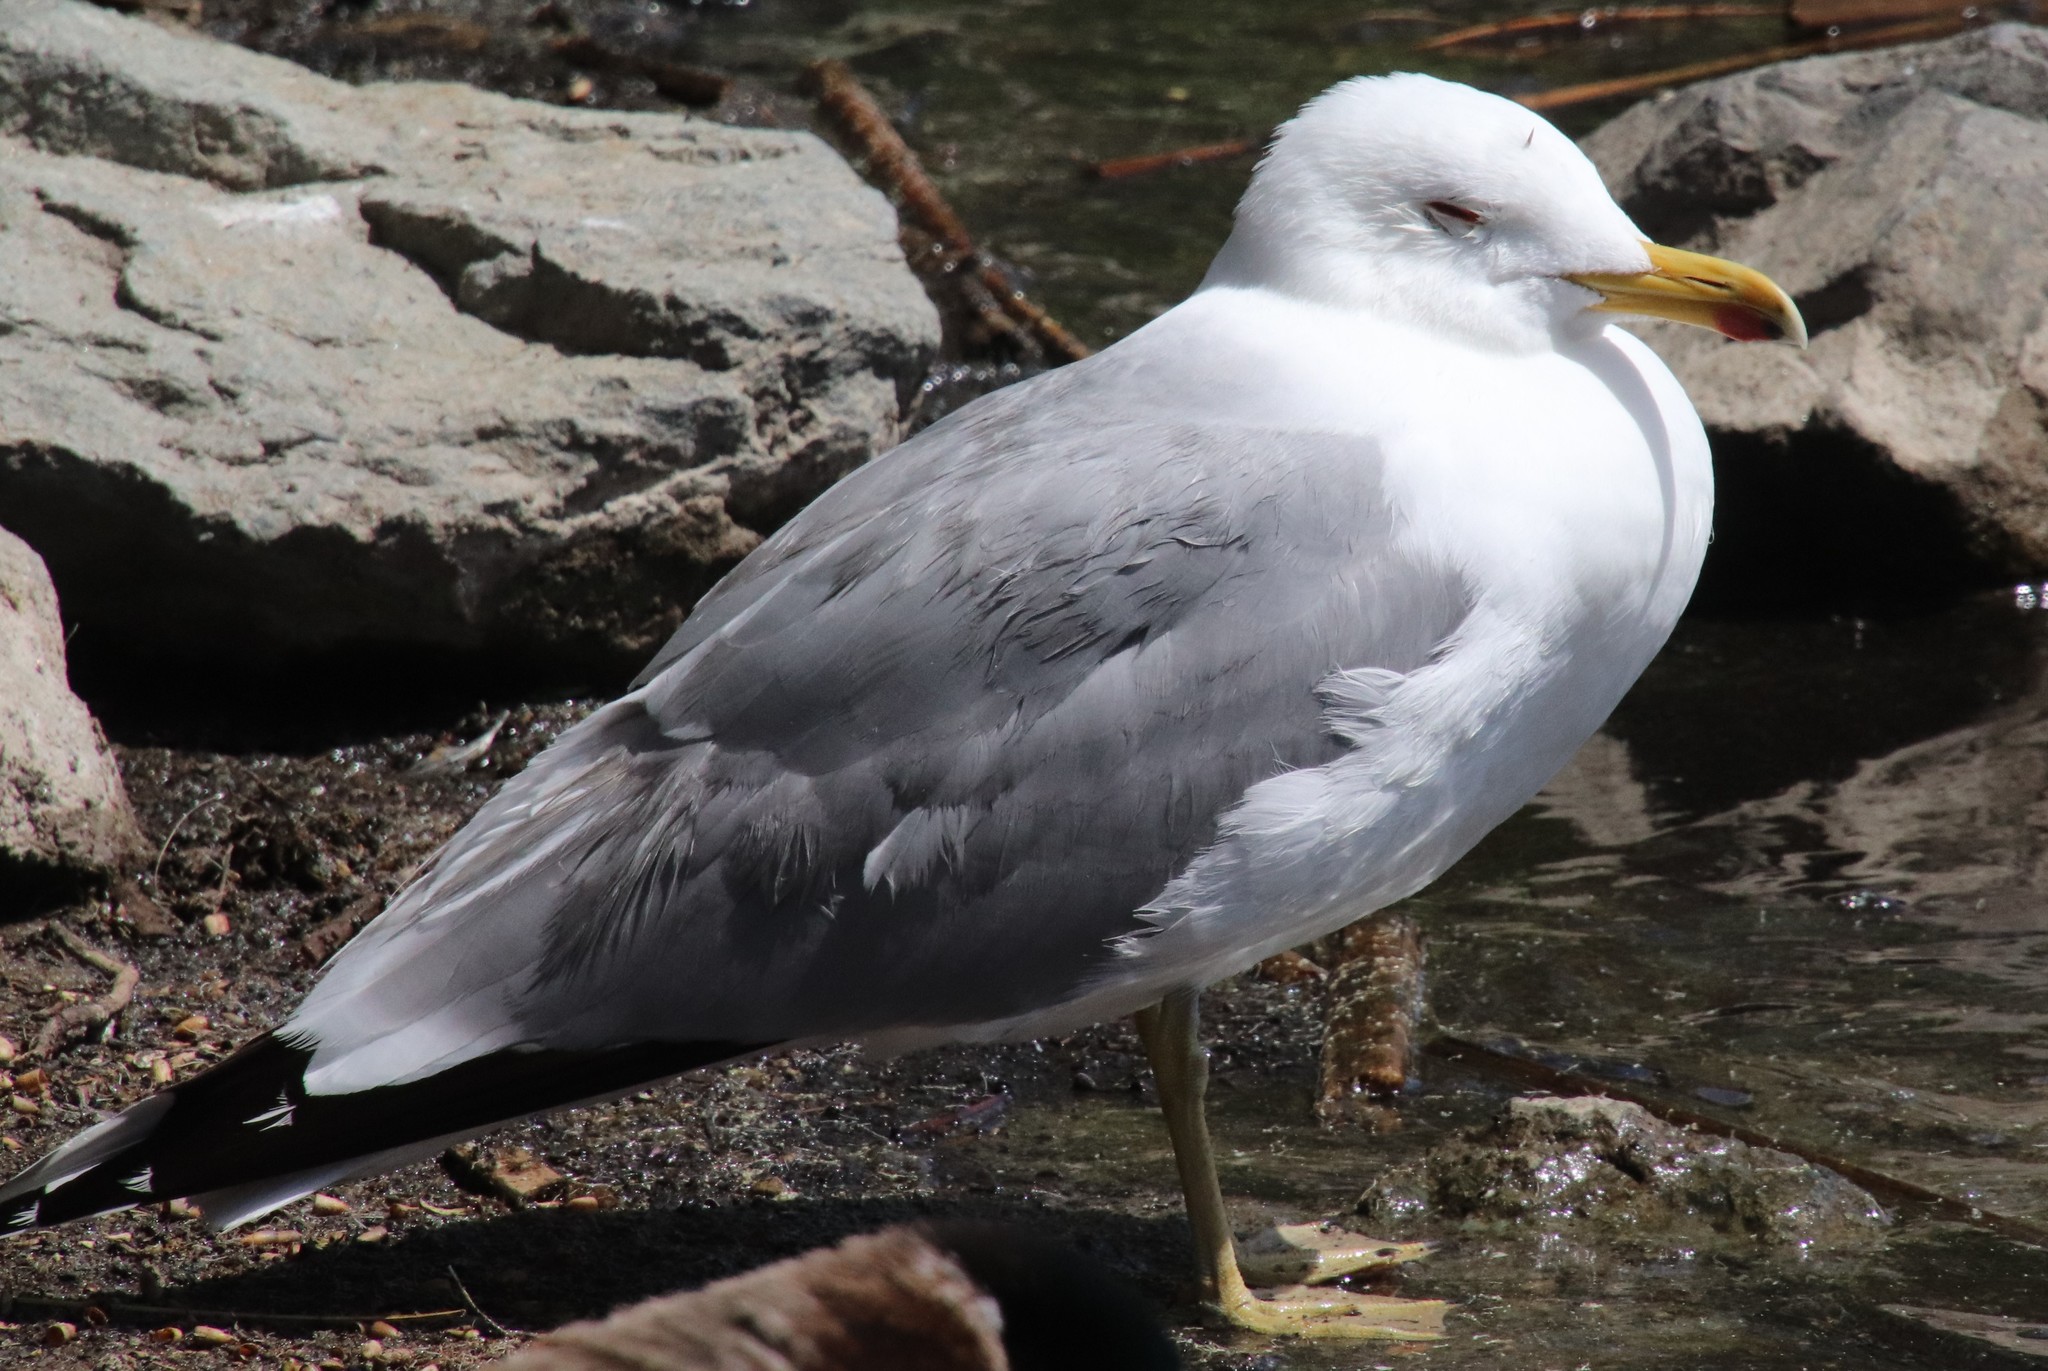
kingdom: Animalia
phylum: Chordata
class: Aves
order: Charadriiformes
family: Laridae
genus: Larus
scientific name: Larus californicus
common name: California gull
